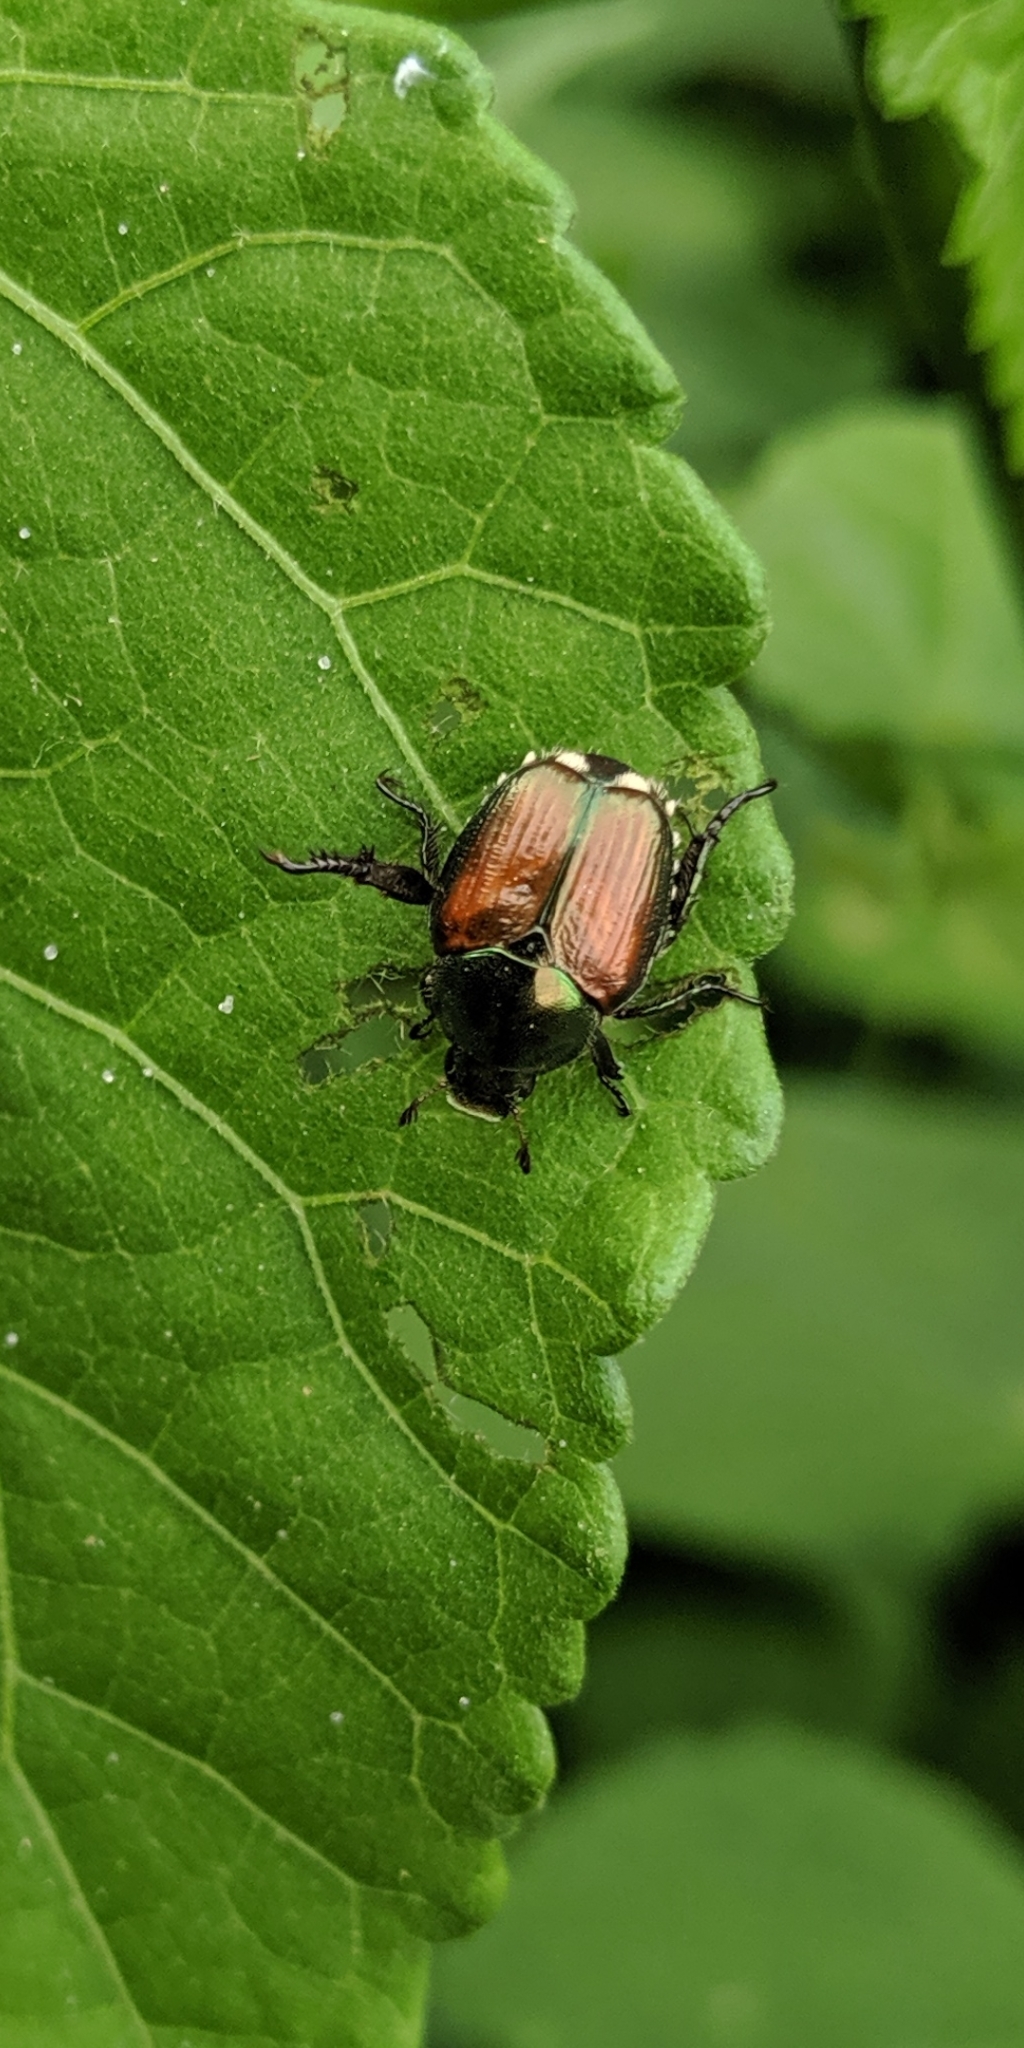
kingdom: Animalia
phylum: Arthropoda
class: Insecta
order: Coleoptera
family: Scarabaeidae
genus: Popillia
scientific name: Popillia japonica
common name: Japanese beetle
